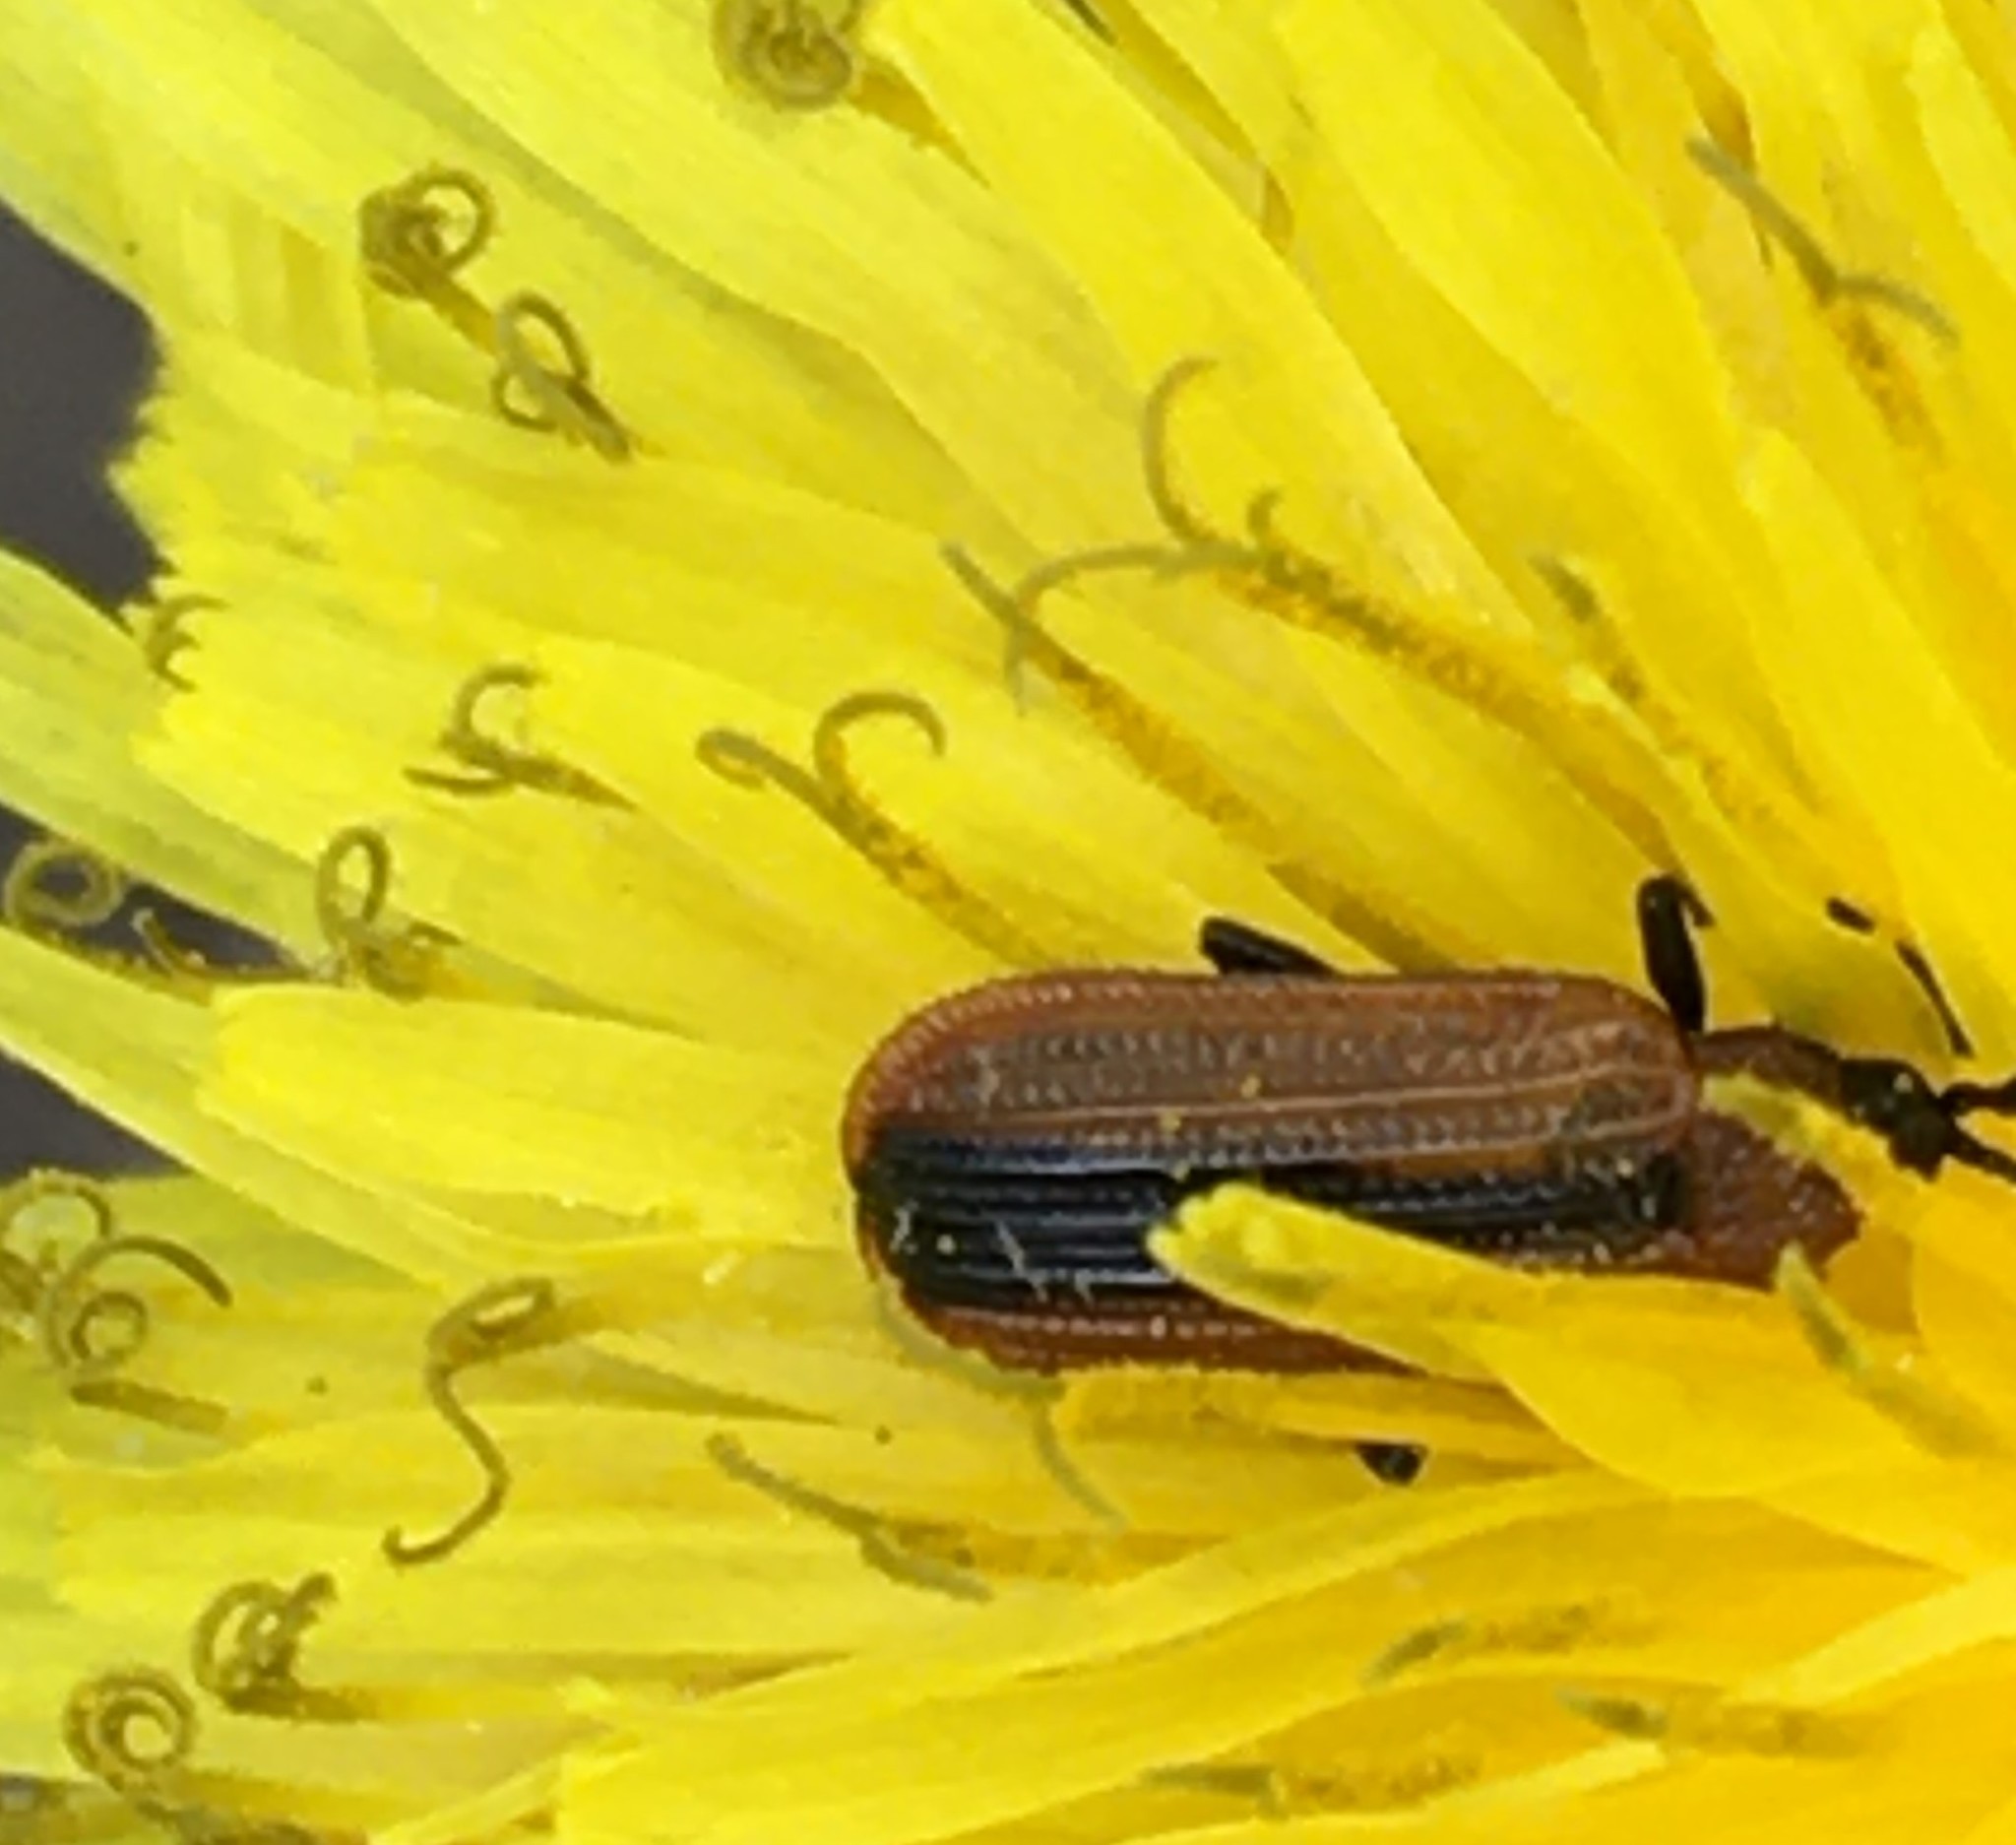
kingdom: Animalia
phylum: Arthropoda
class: Insecta
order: Coleoptera
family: Chrysomelidae
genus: Odontota
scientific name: Odontota dorsalis
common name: Locust leaf-miner beetle
